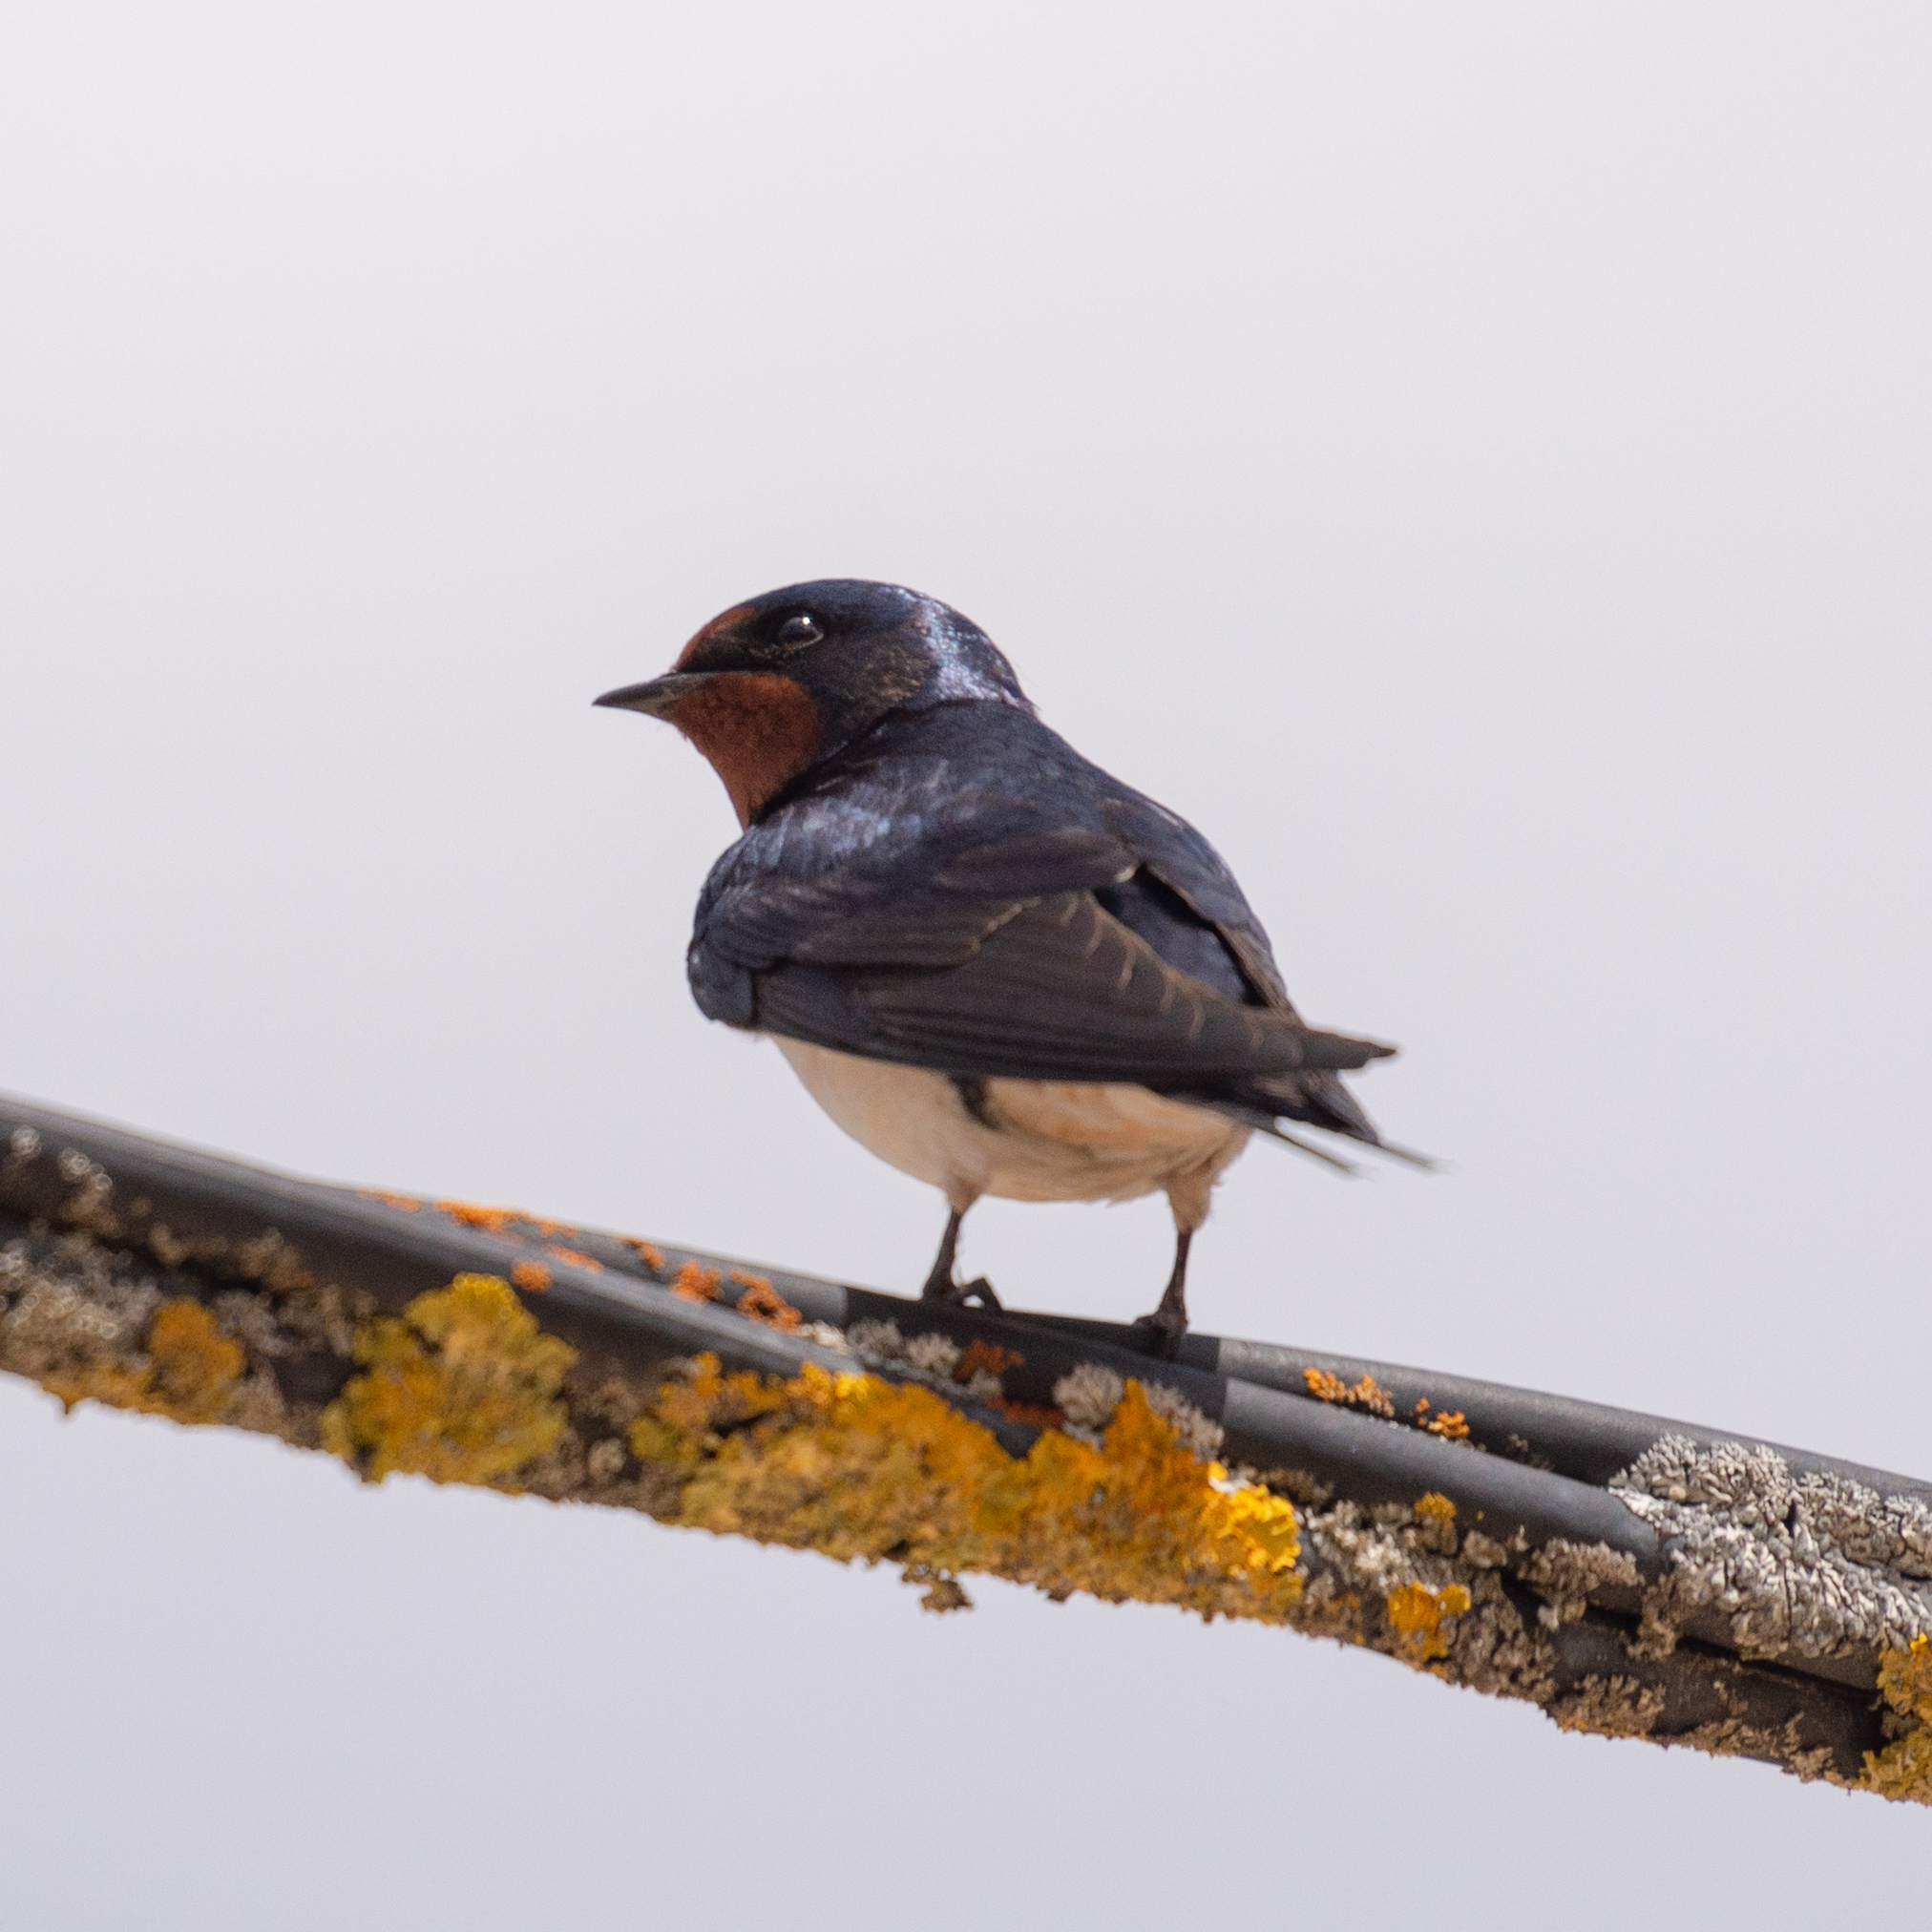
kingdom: Animalia
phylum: Chordata
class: Aves
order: Passeriformes
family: Hirundinidae
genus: Hirundo
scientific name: Hirundo rustica
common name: Barn swallow
